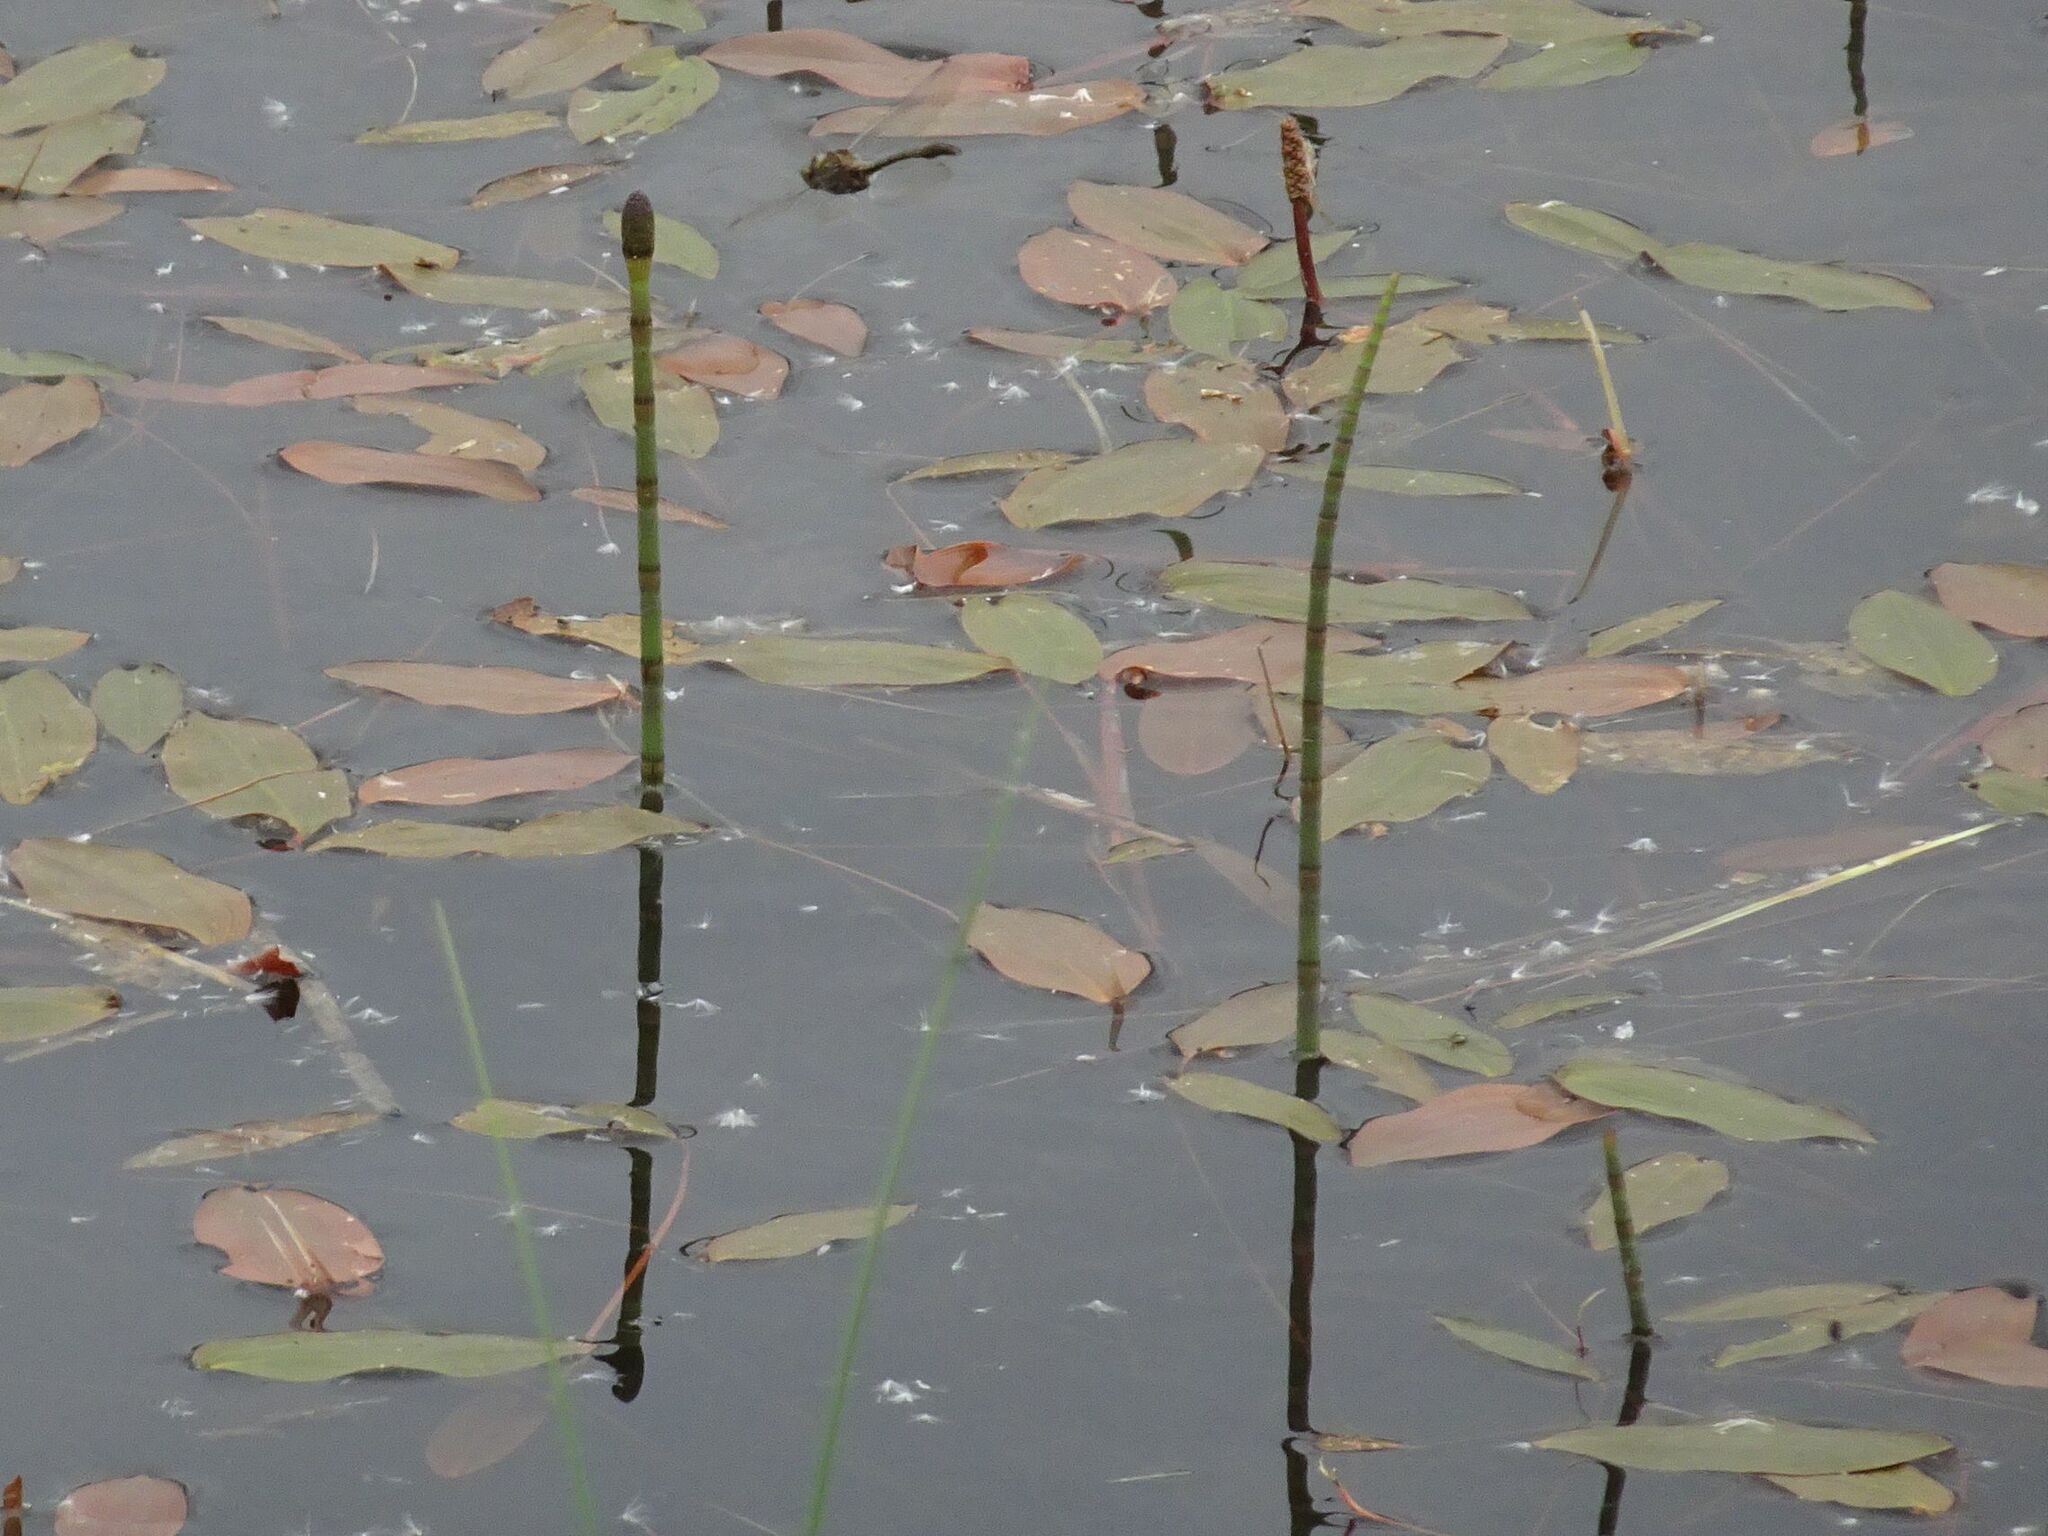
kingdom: Plantae
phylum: Tracheophyta
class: Polypodiopsida
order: Equisetales
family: Equisetaceae
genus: Equisetum
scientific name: Equisetum fluviatile
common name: Water horsetail
